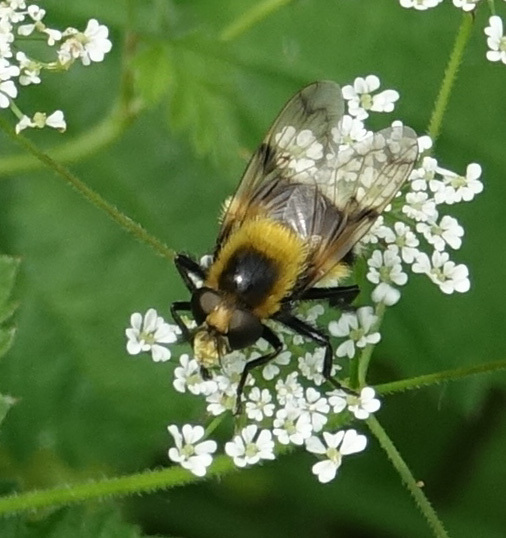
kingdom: Animalia
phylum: Arthropoda
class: Insecta
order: Diptera
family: Syrphidae
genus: Volucella
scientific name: Volucella bombylans
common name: Bumble bee hover fly
